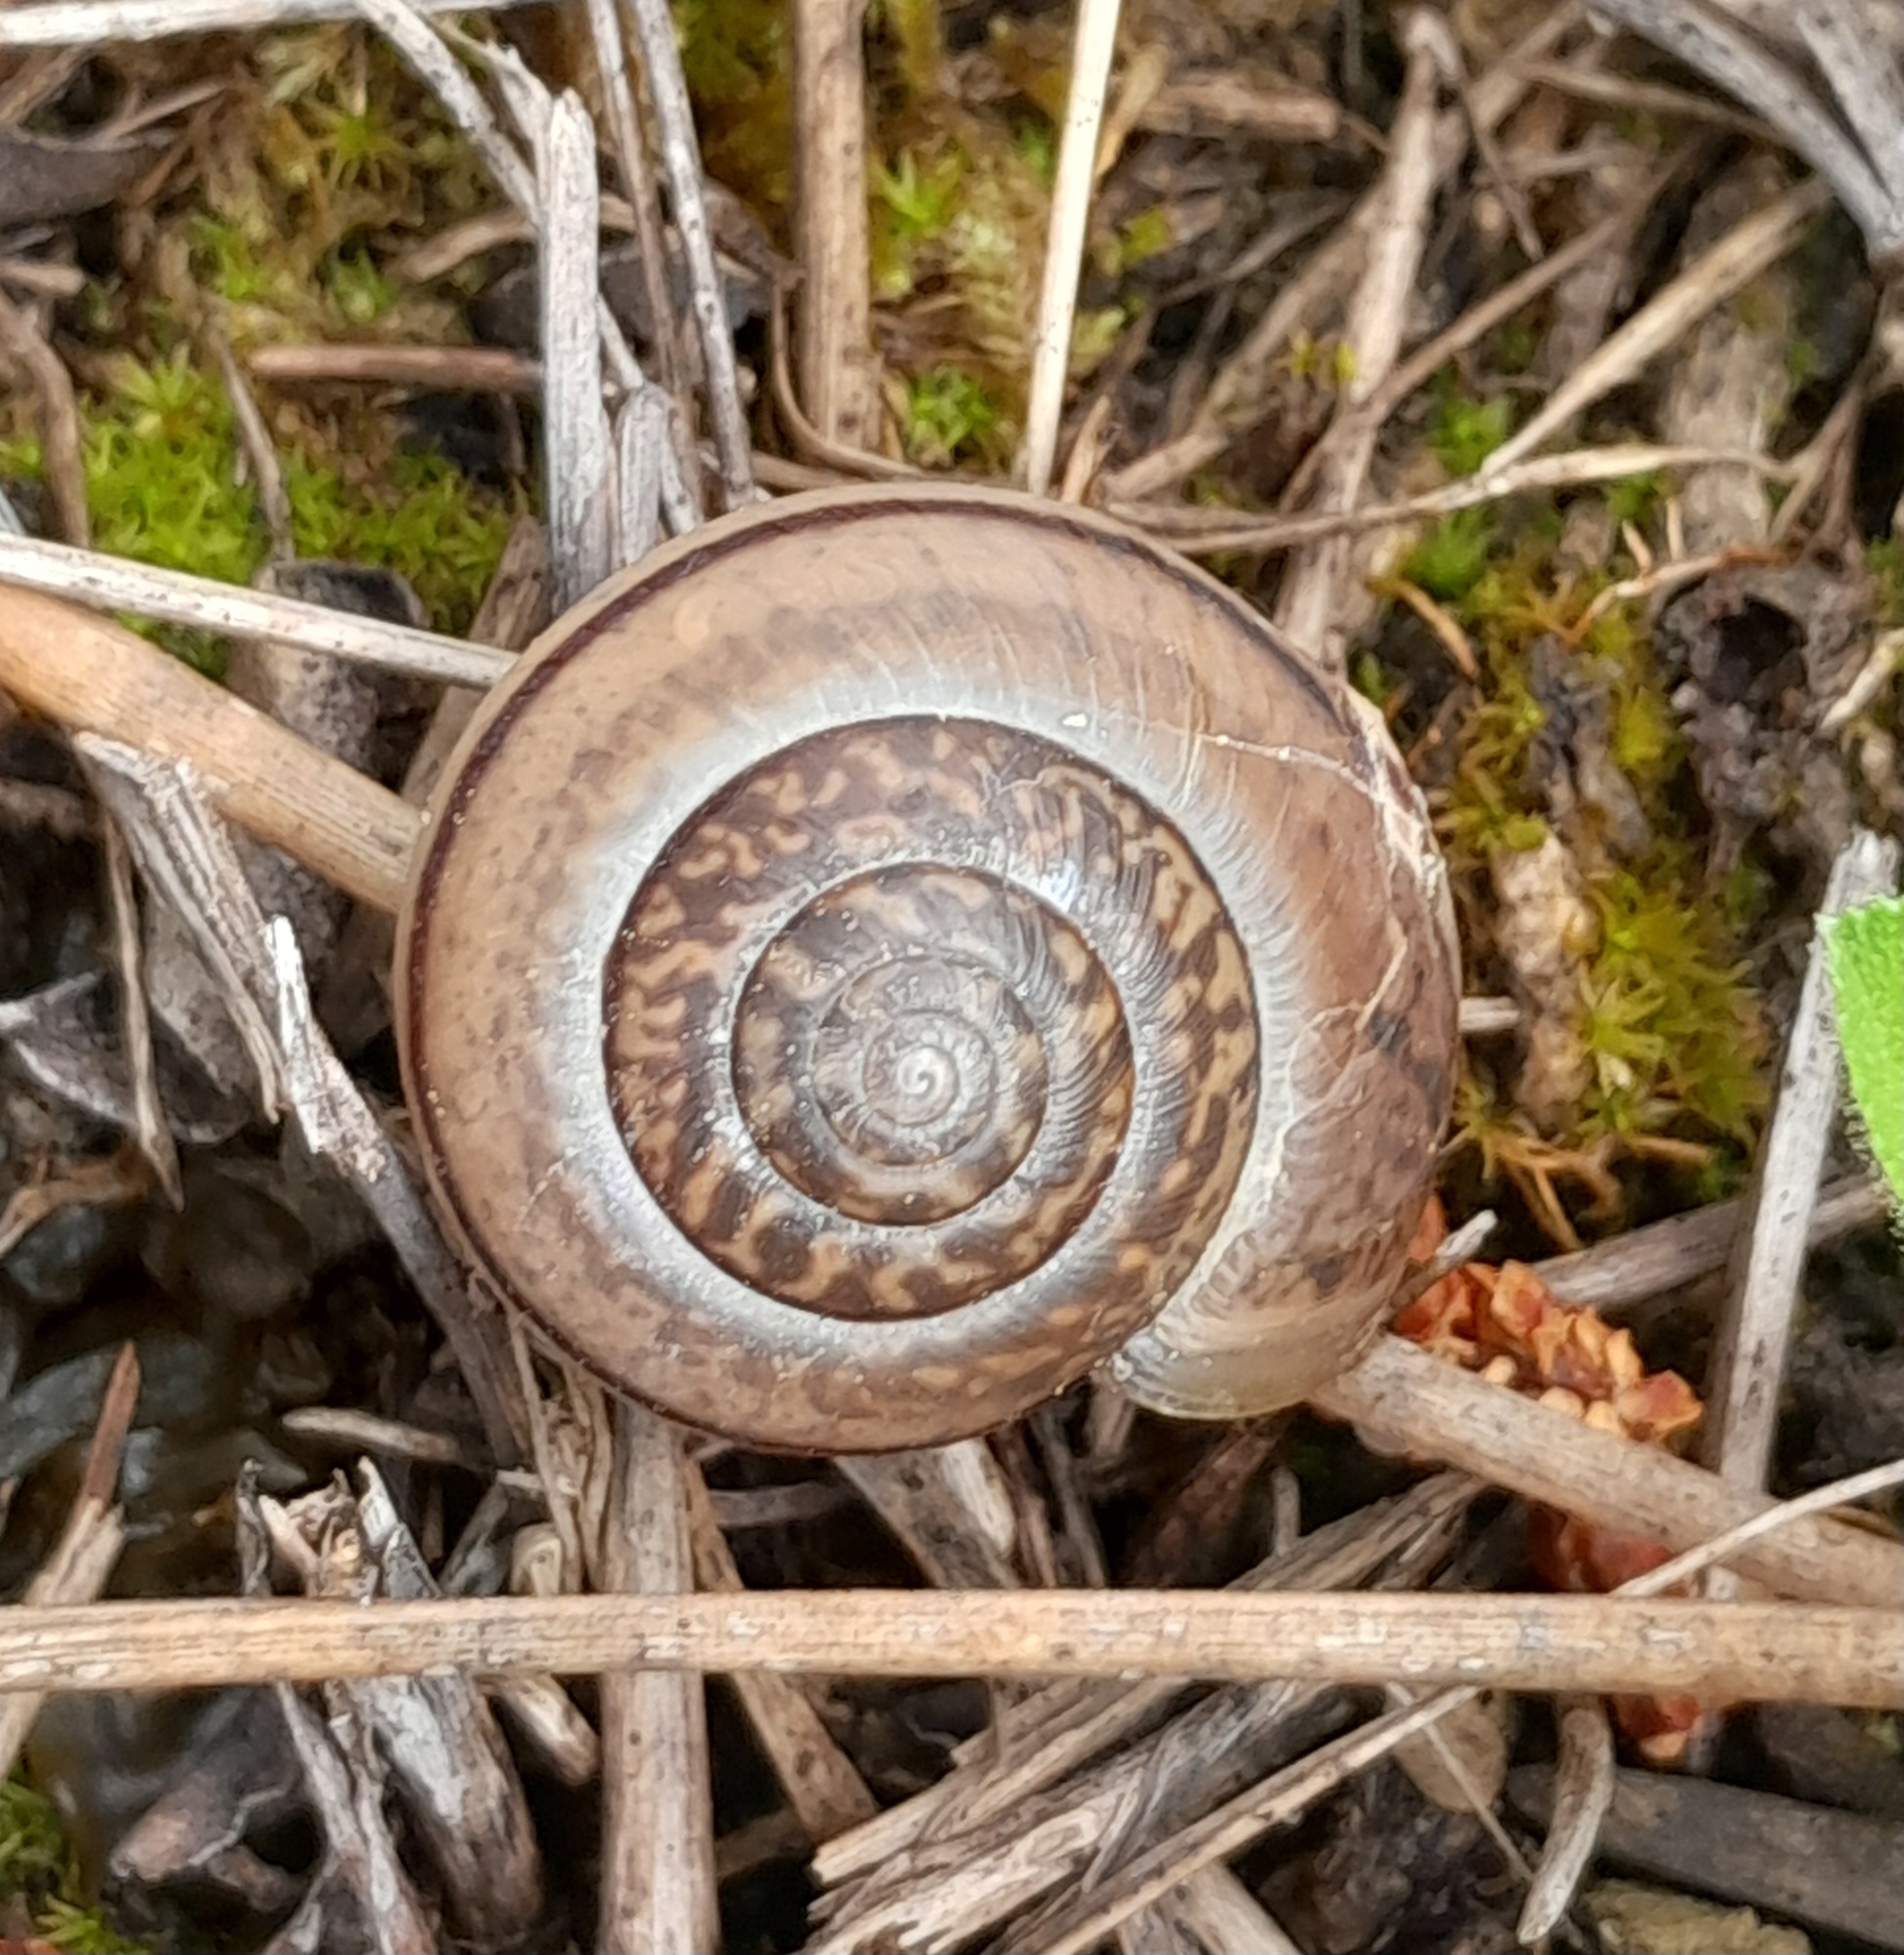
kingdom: Animalia
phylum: Mollusca
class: Gastropoda
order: Stylommatophora
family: Hygromiidae
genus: Portugala
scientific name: Portugala inchoata
